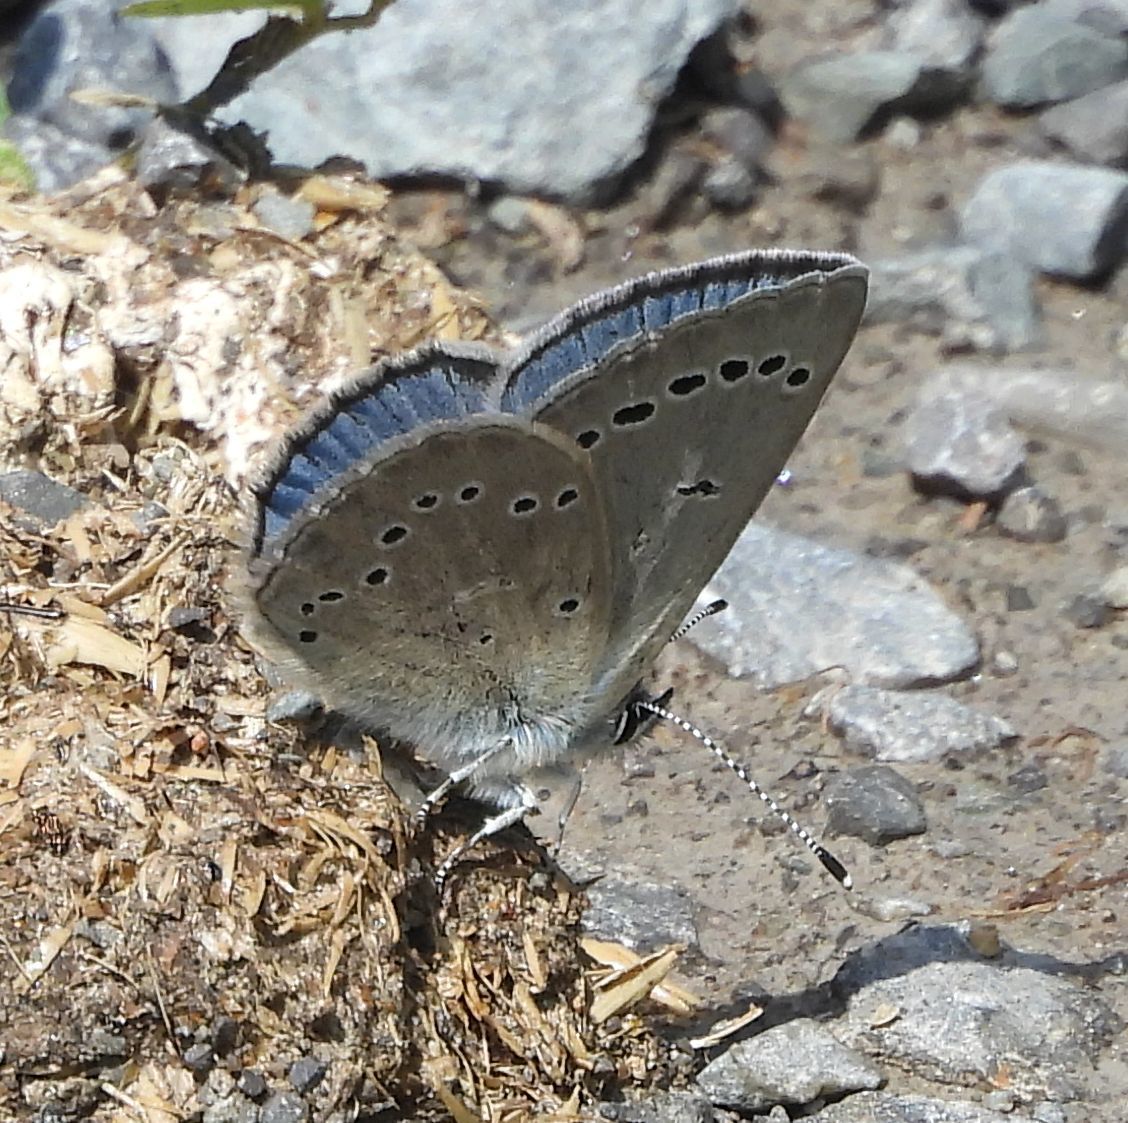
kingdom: Animalia
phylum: Arthropoda
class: Insecta
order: Lepidoptera
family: Lycaenidae
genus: Glaucopsyche
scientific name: Glaucopsyche lygdamus
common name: Silvery blue
